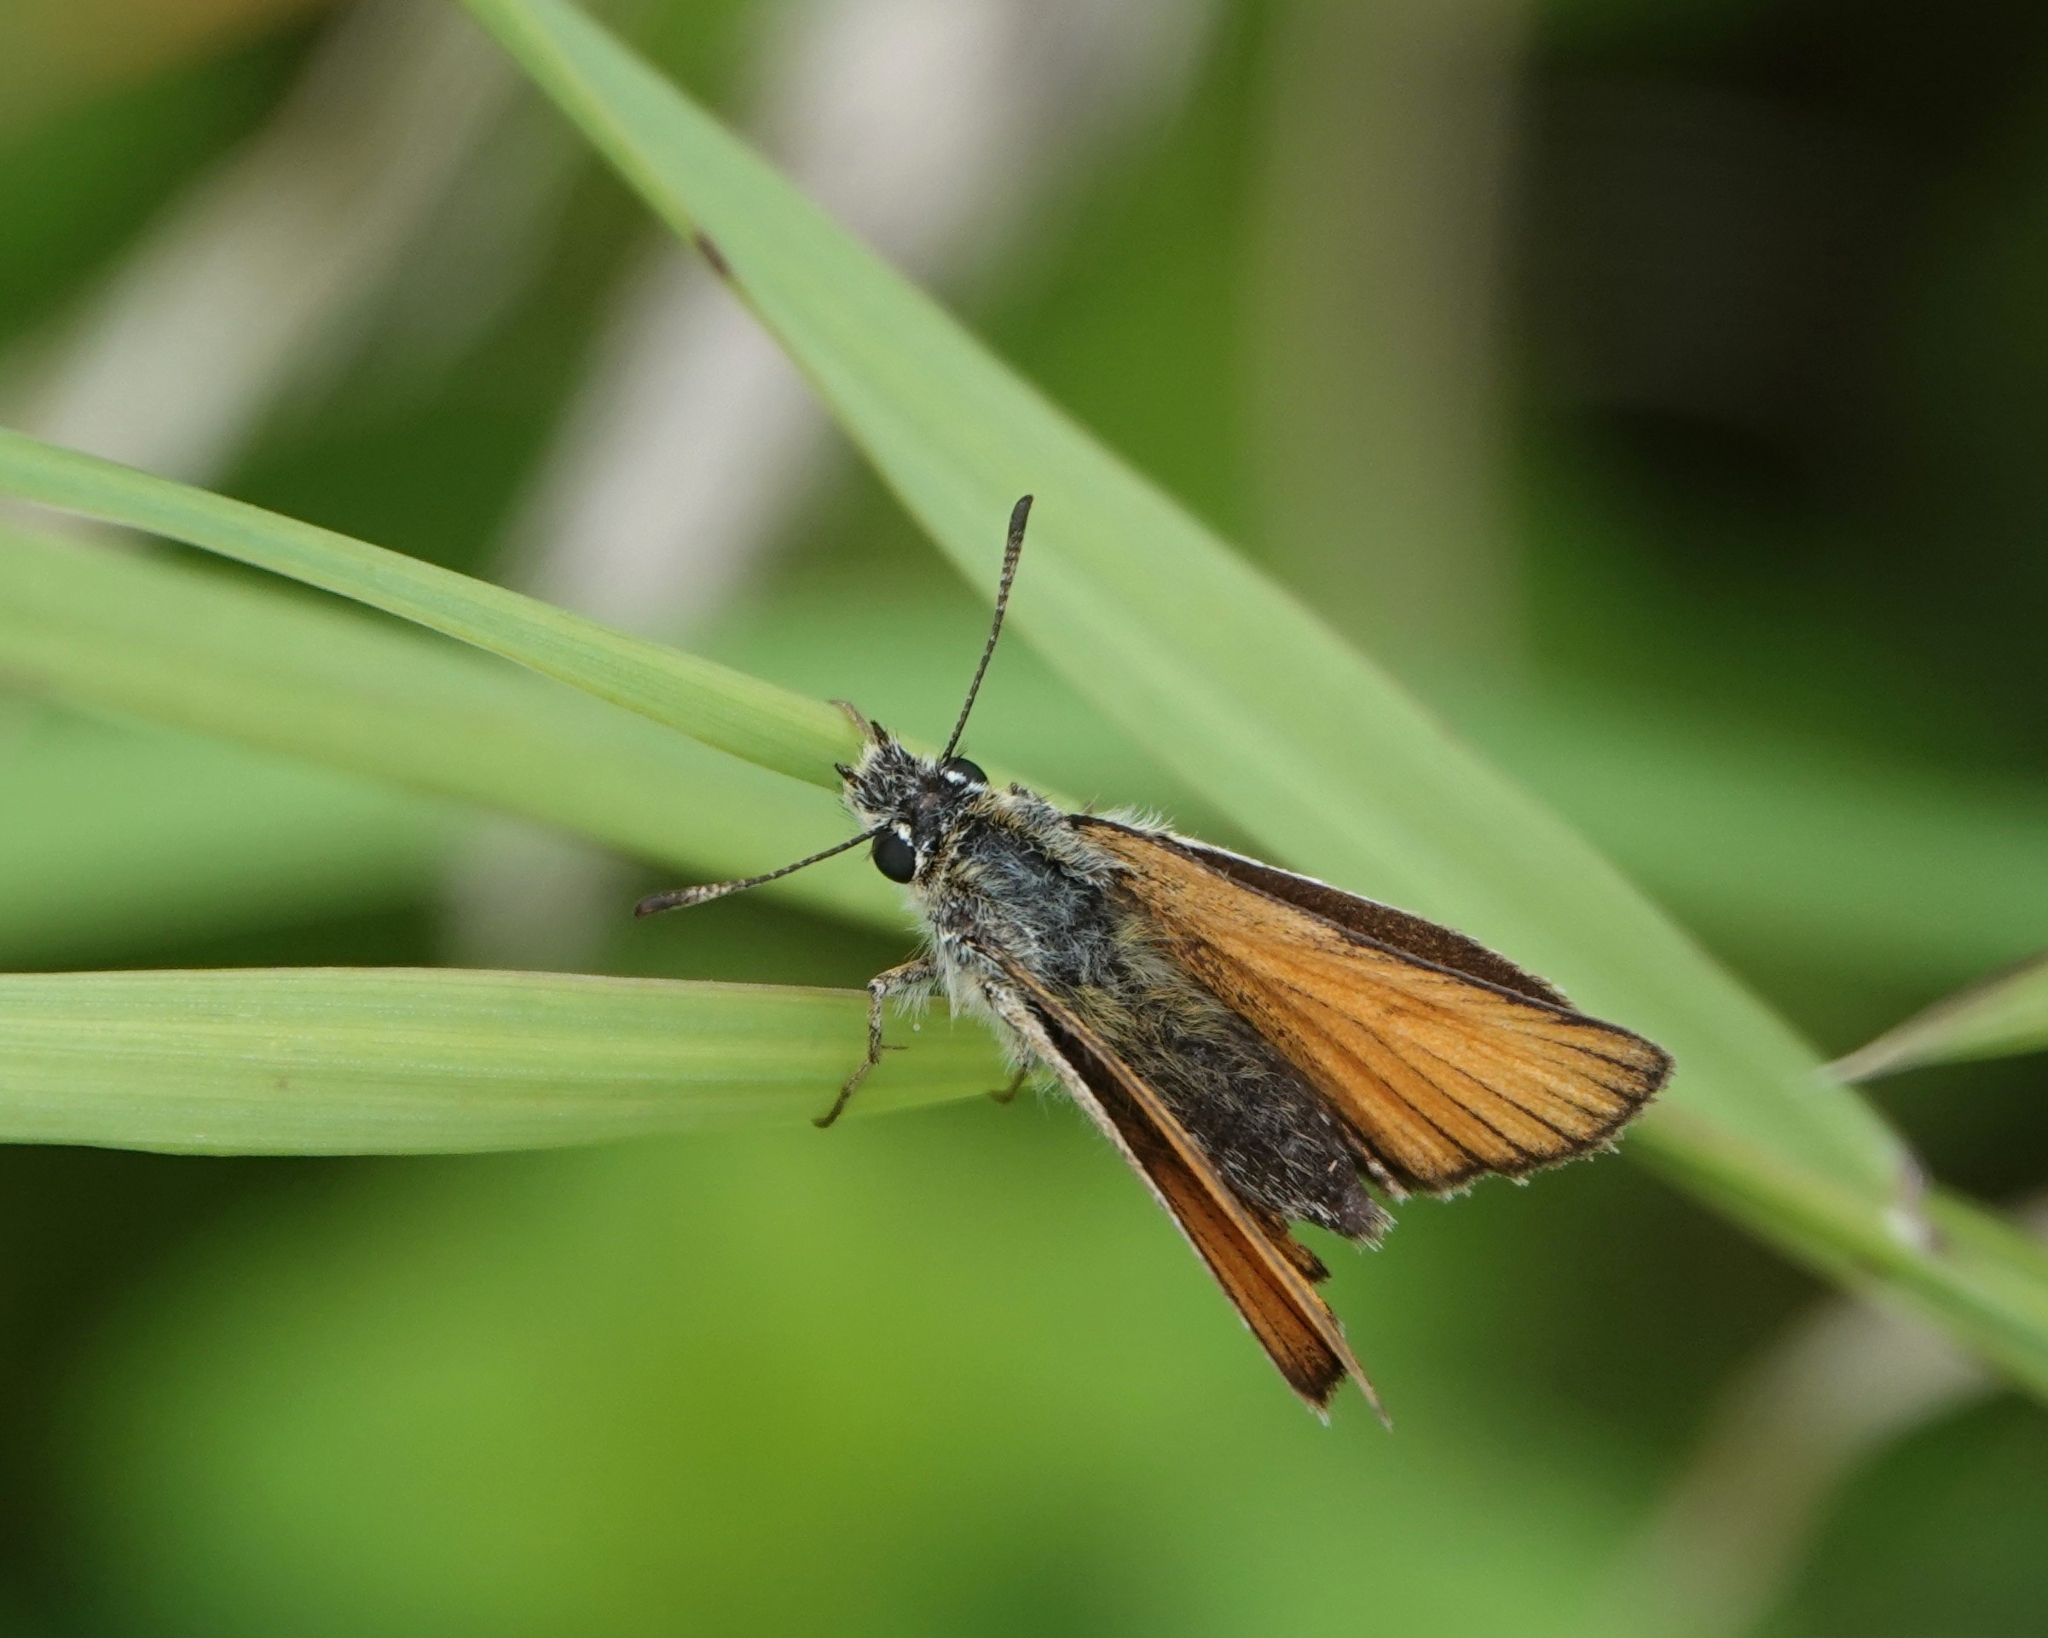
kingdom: Animalia
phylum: Arthropoda
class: Insecta
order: Lepidoptera
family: Hesperiidae
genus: Thymelicus
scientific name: Thymelicus lineola
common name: Essex skipper
